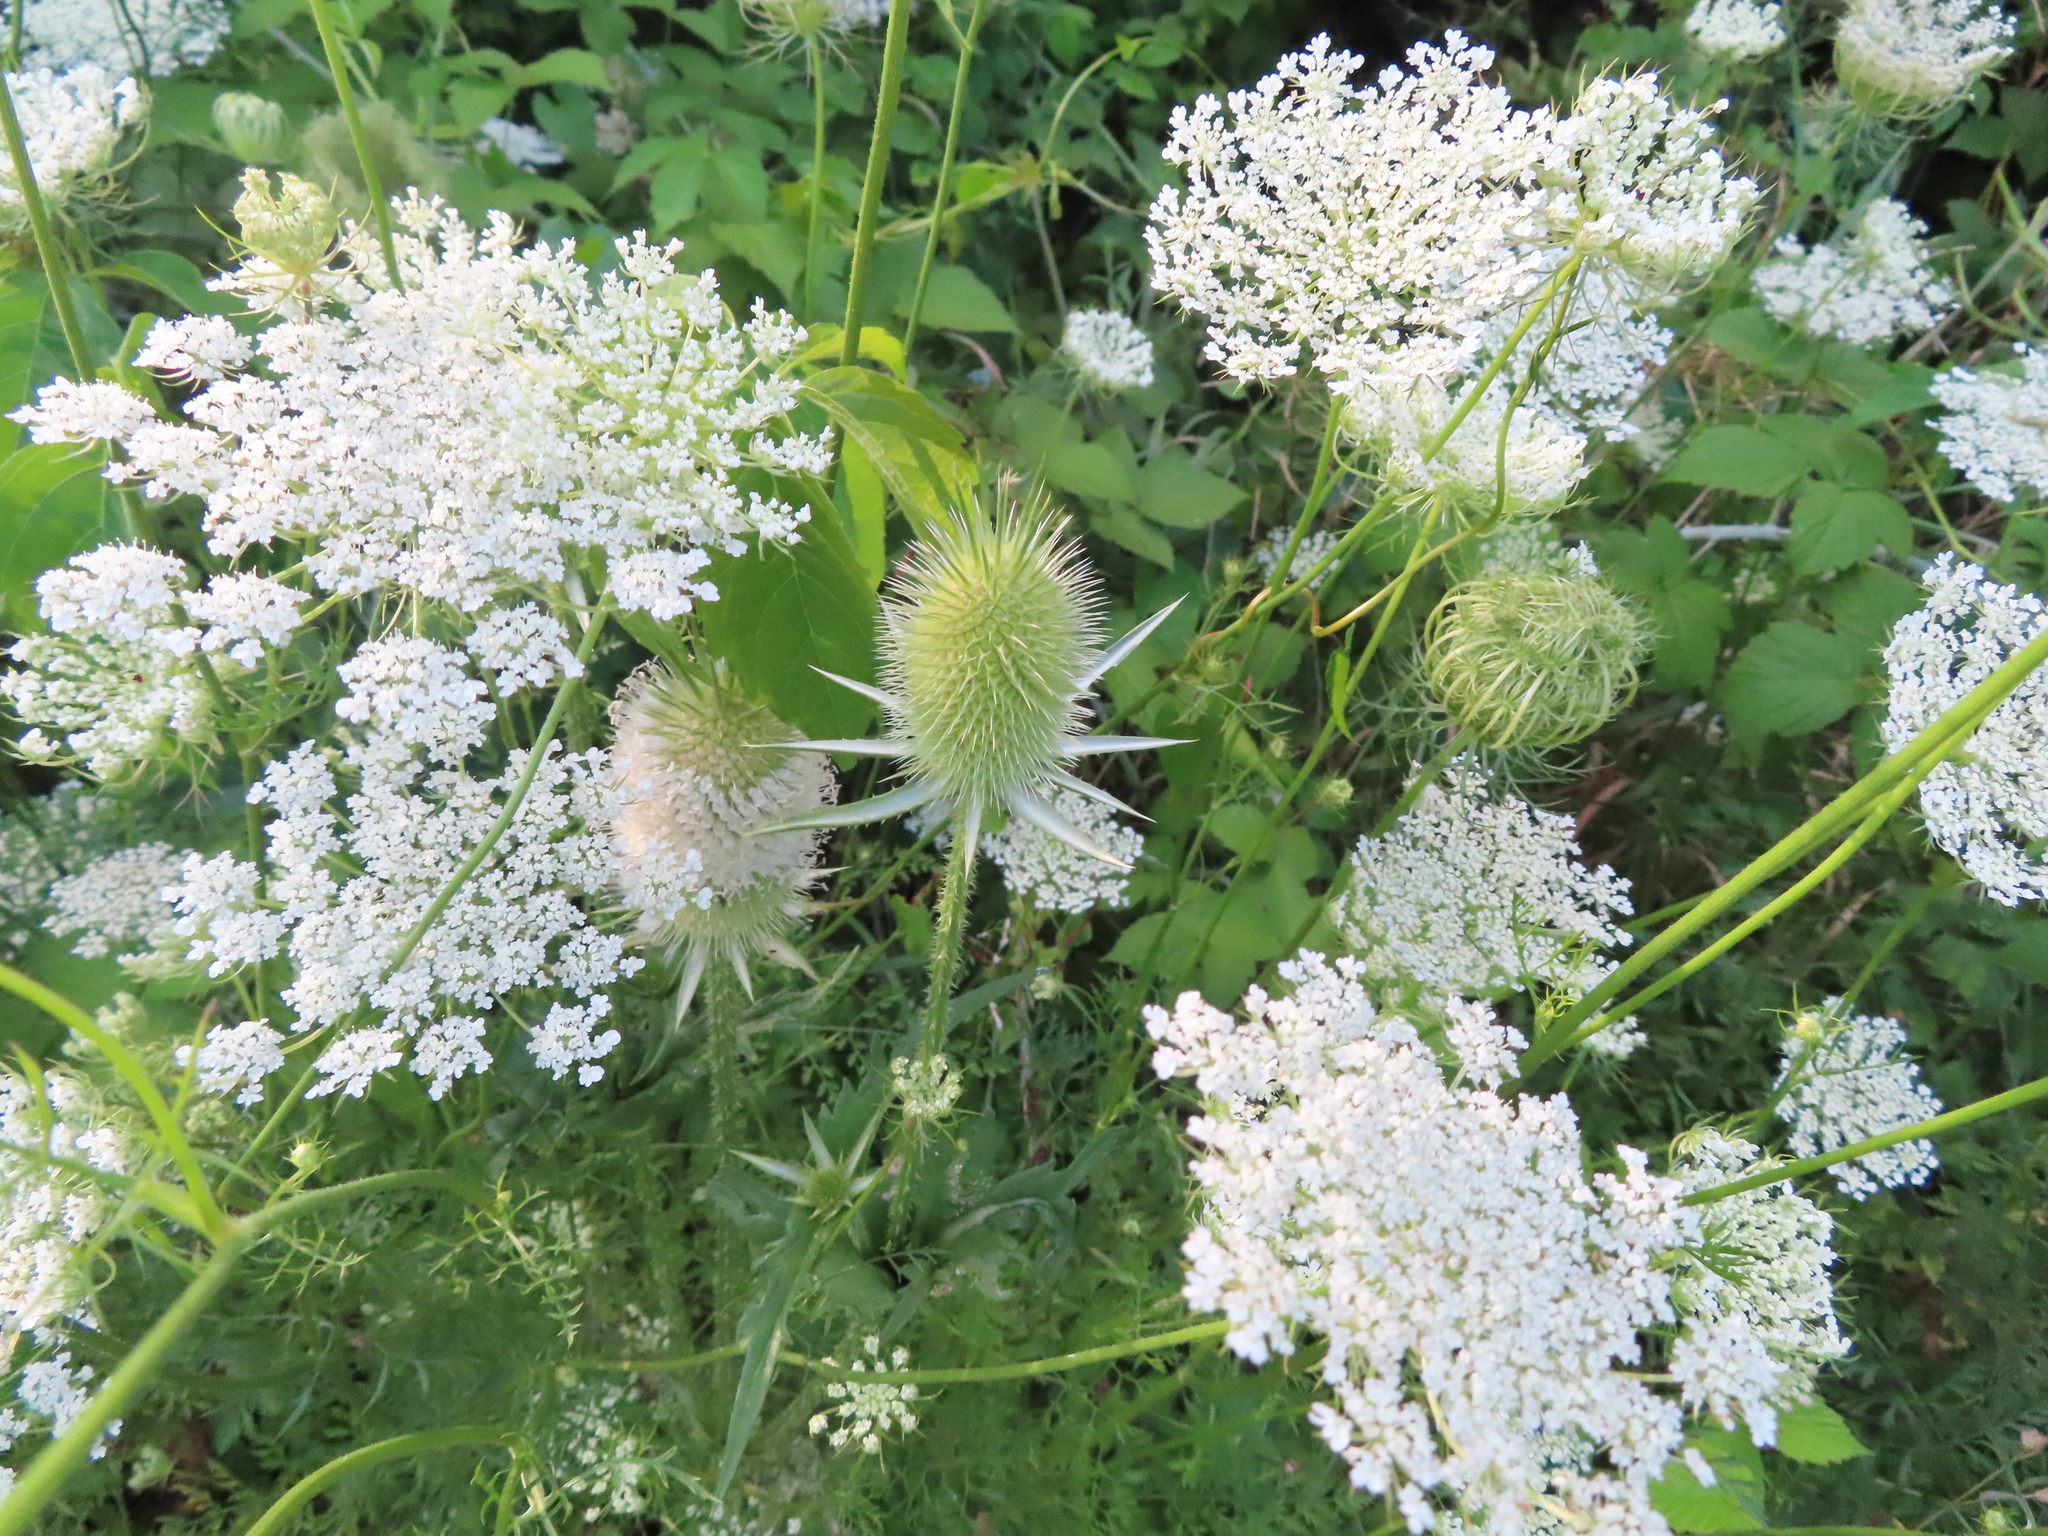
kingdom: Plantae
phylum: Tracheophyta
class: Magnoliopsida
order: Dipsacales
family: Caprifoliaceae
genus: Dipsacus
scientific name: Dipsacus laciniatus
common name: Cut-leaved teasel
